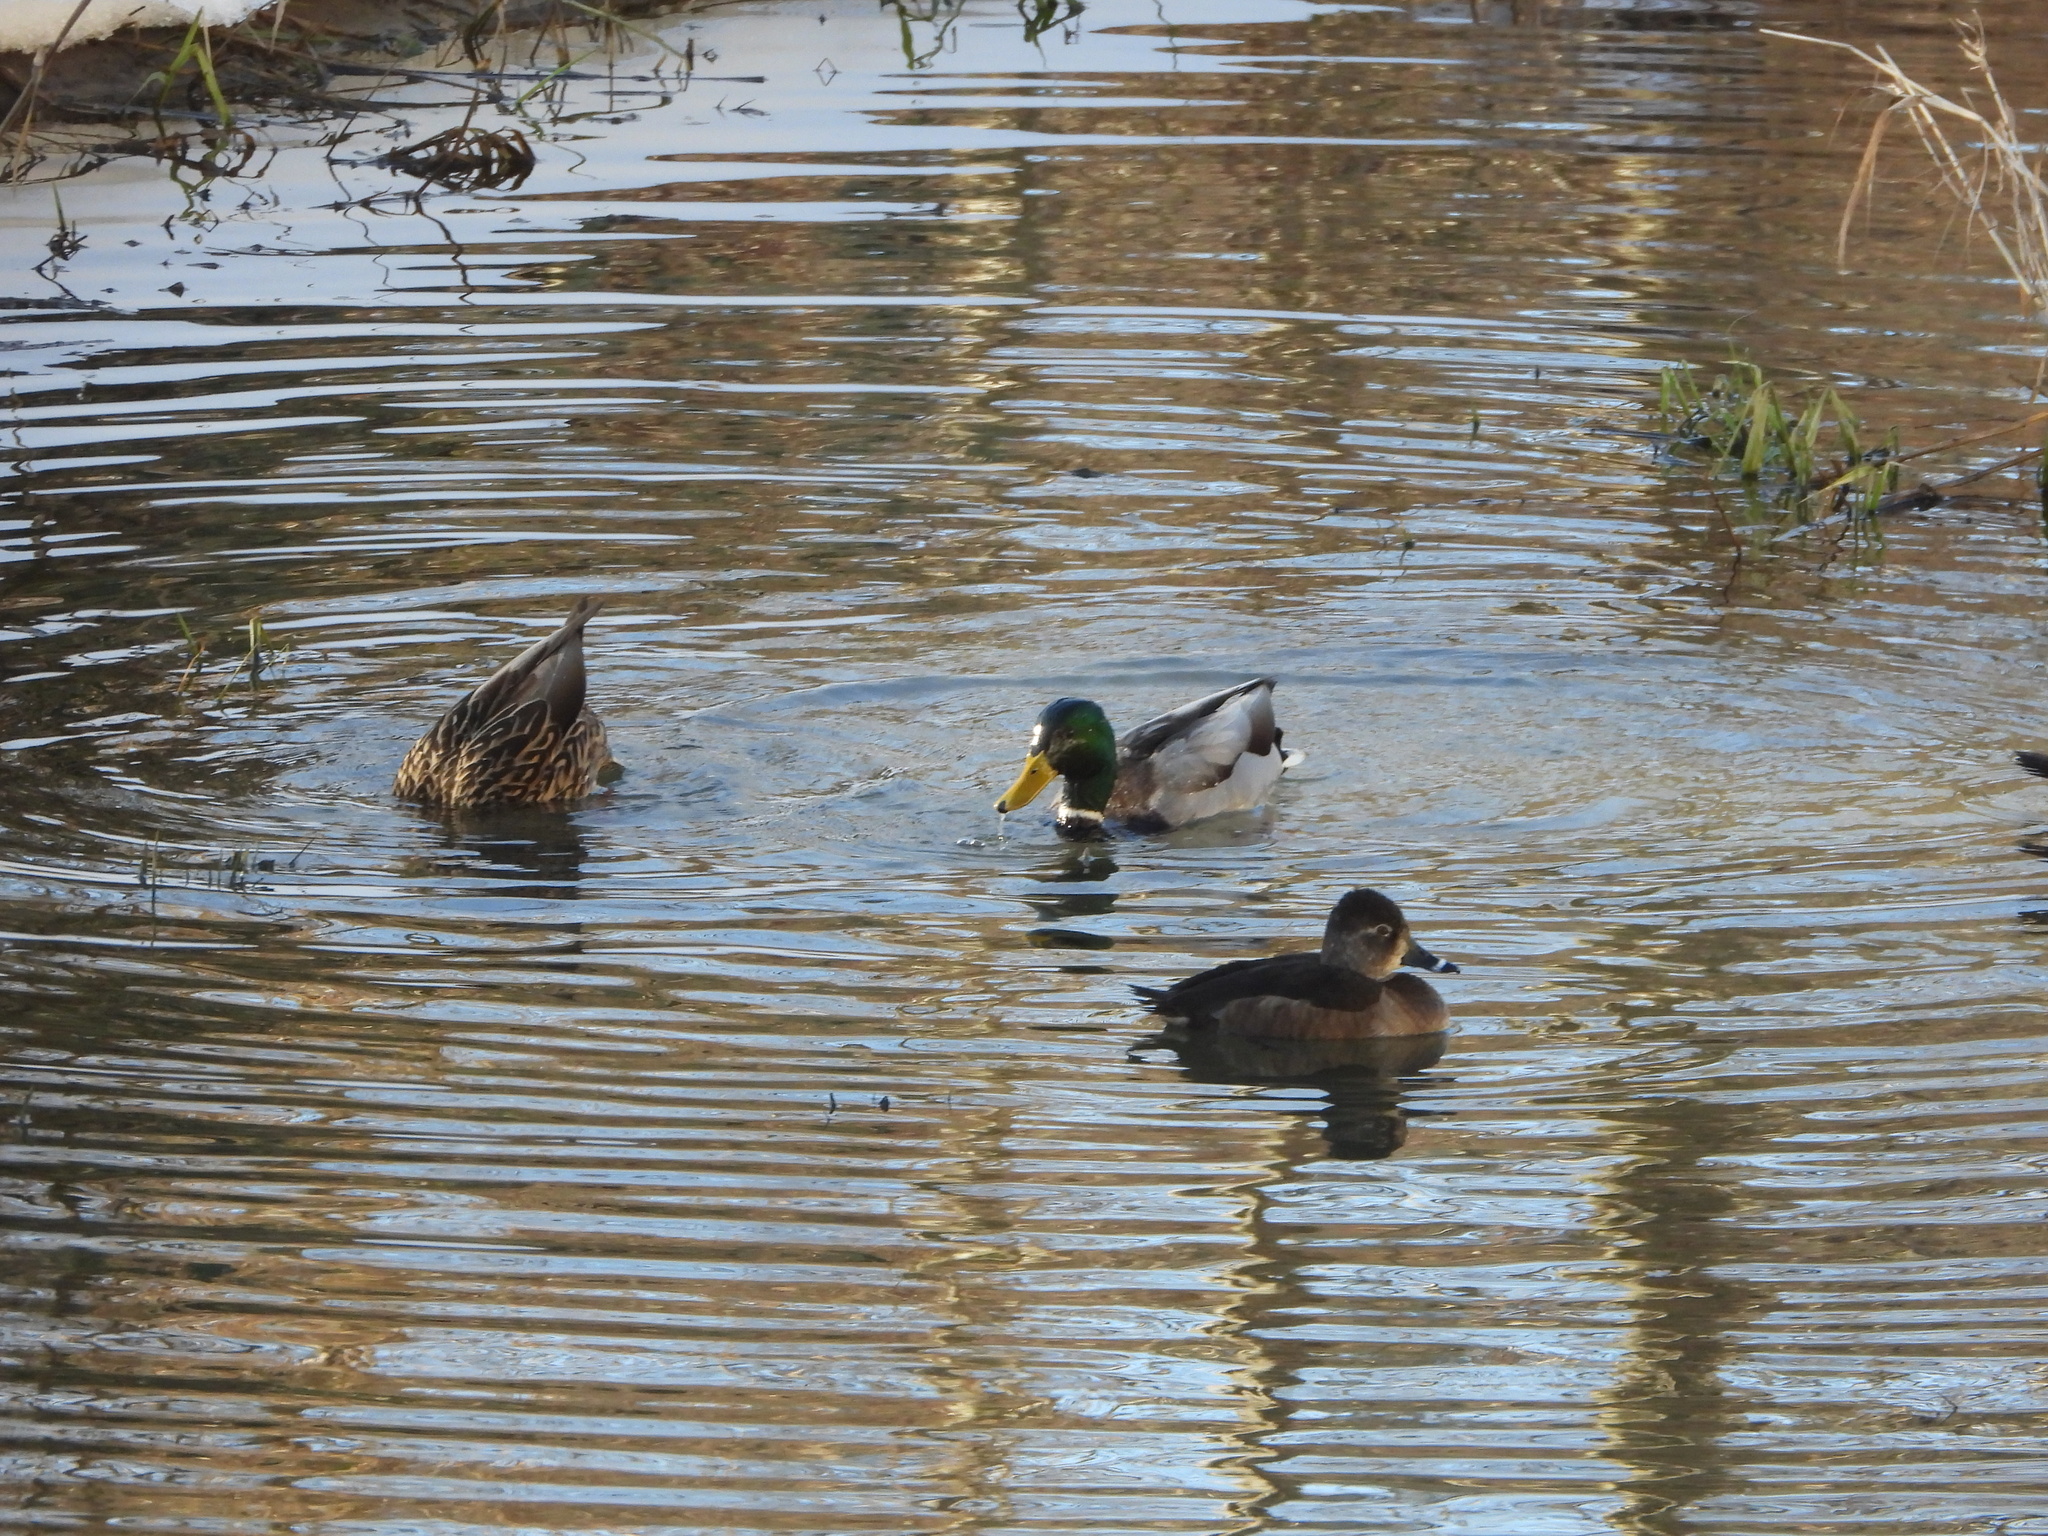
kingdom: Animalia
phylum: Chordata
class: Aves
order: Anseriformes
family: Anatidae
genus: Anas
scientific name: Anas platyrhynchos
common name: Mallard
